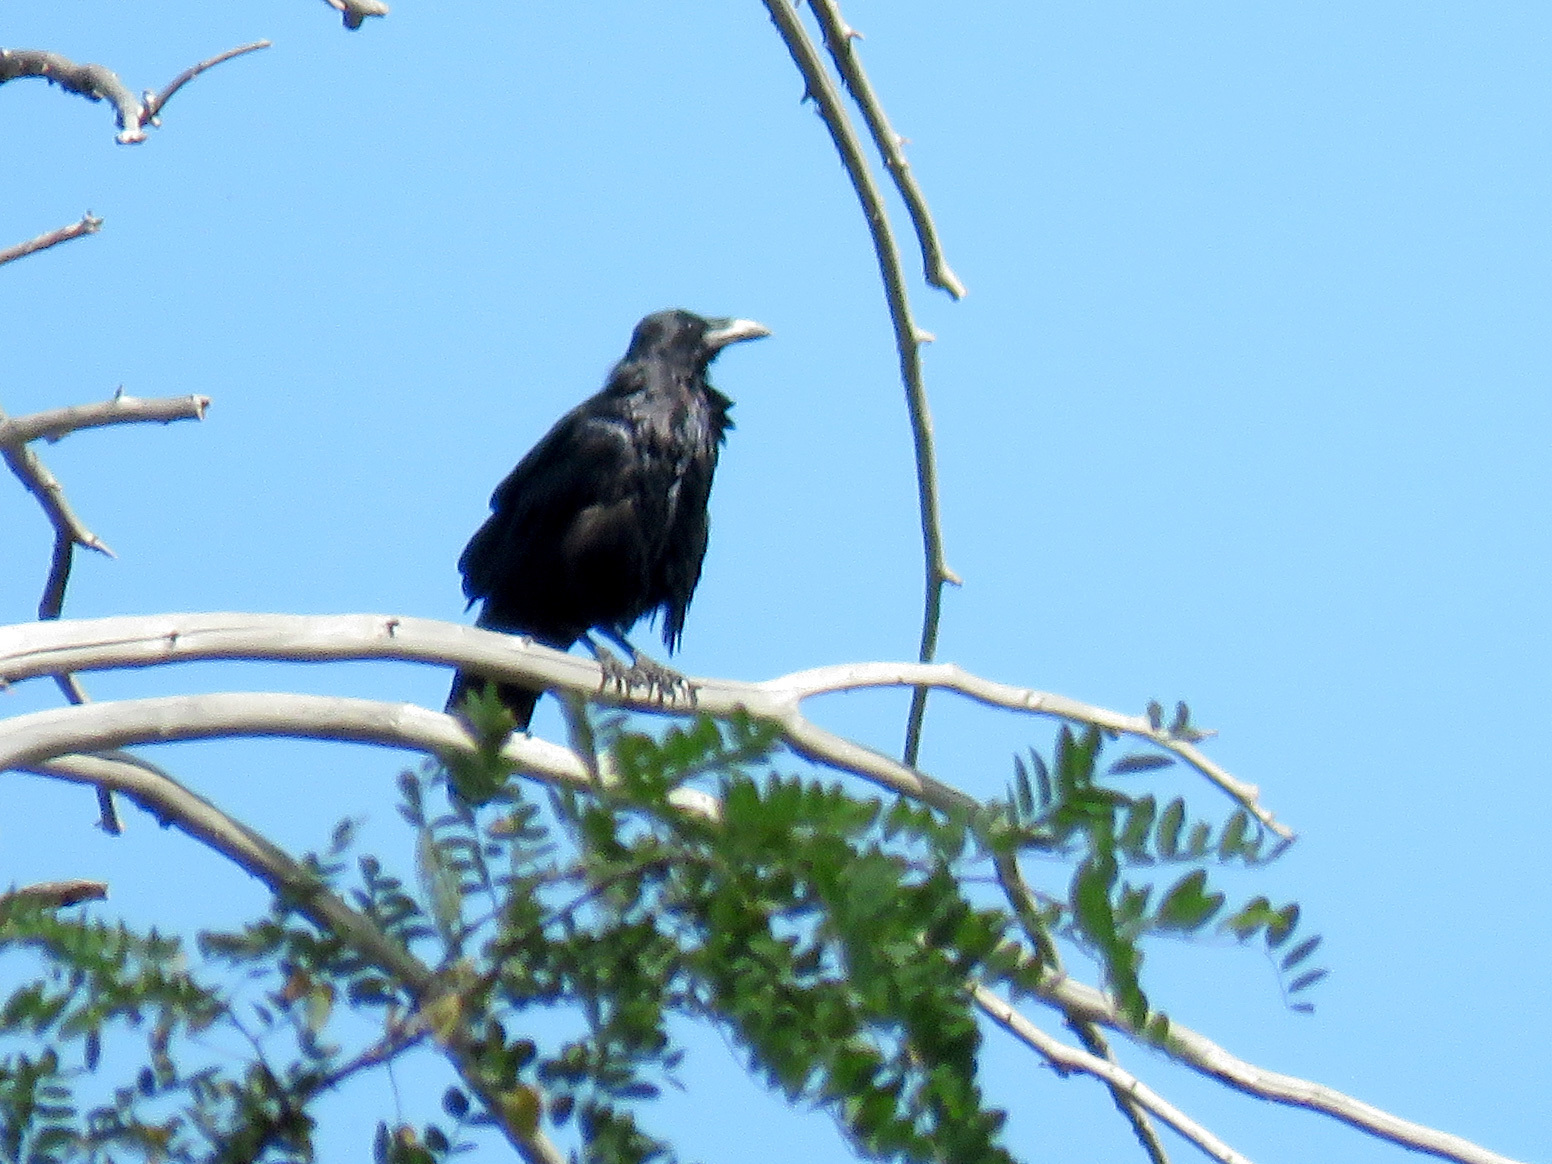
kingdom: Animalia
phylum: Chordata
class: Aves
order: Passeriformes
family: Corvidae
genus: Corvus
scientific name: Corvus corax
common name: Common raven
